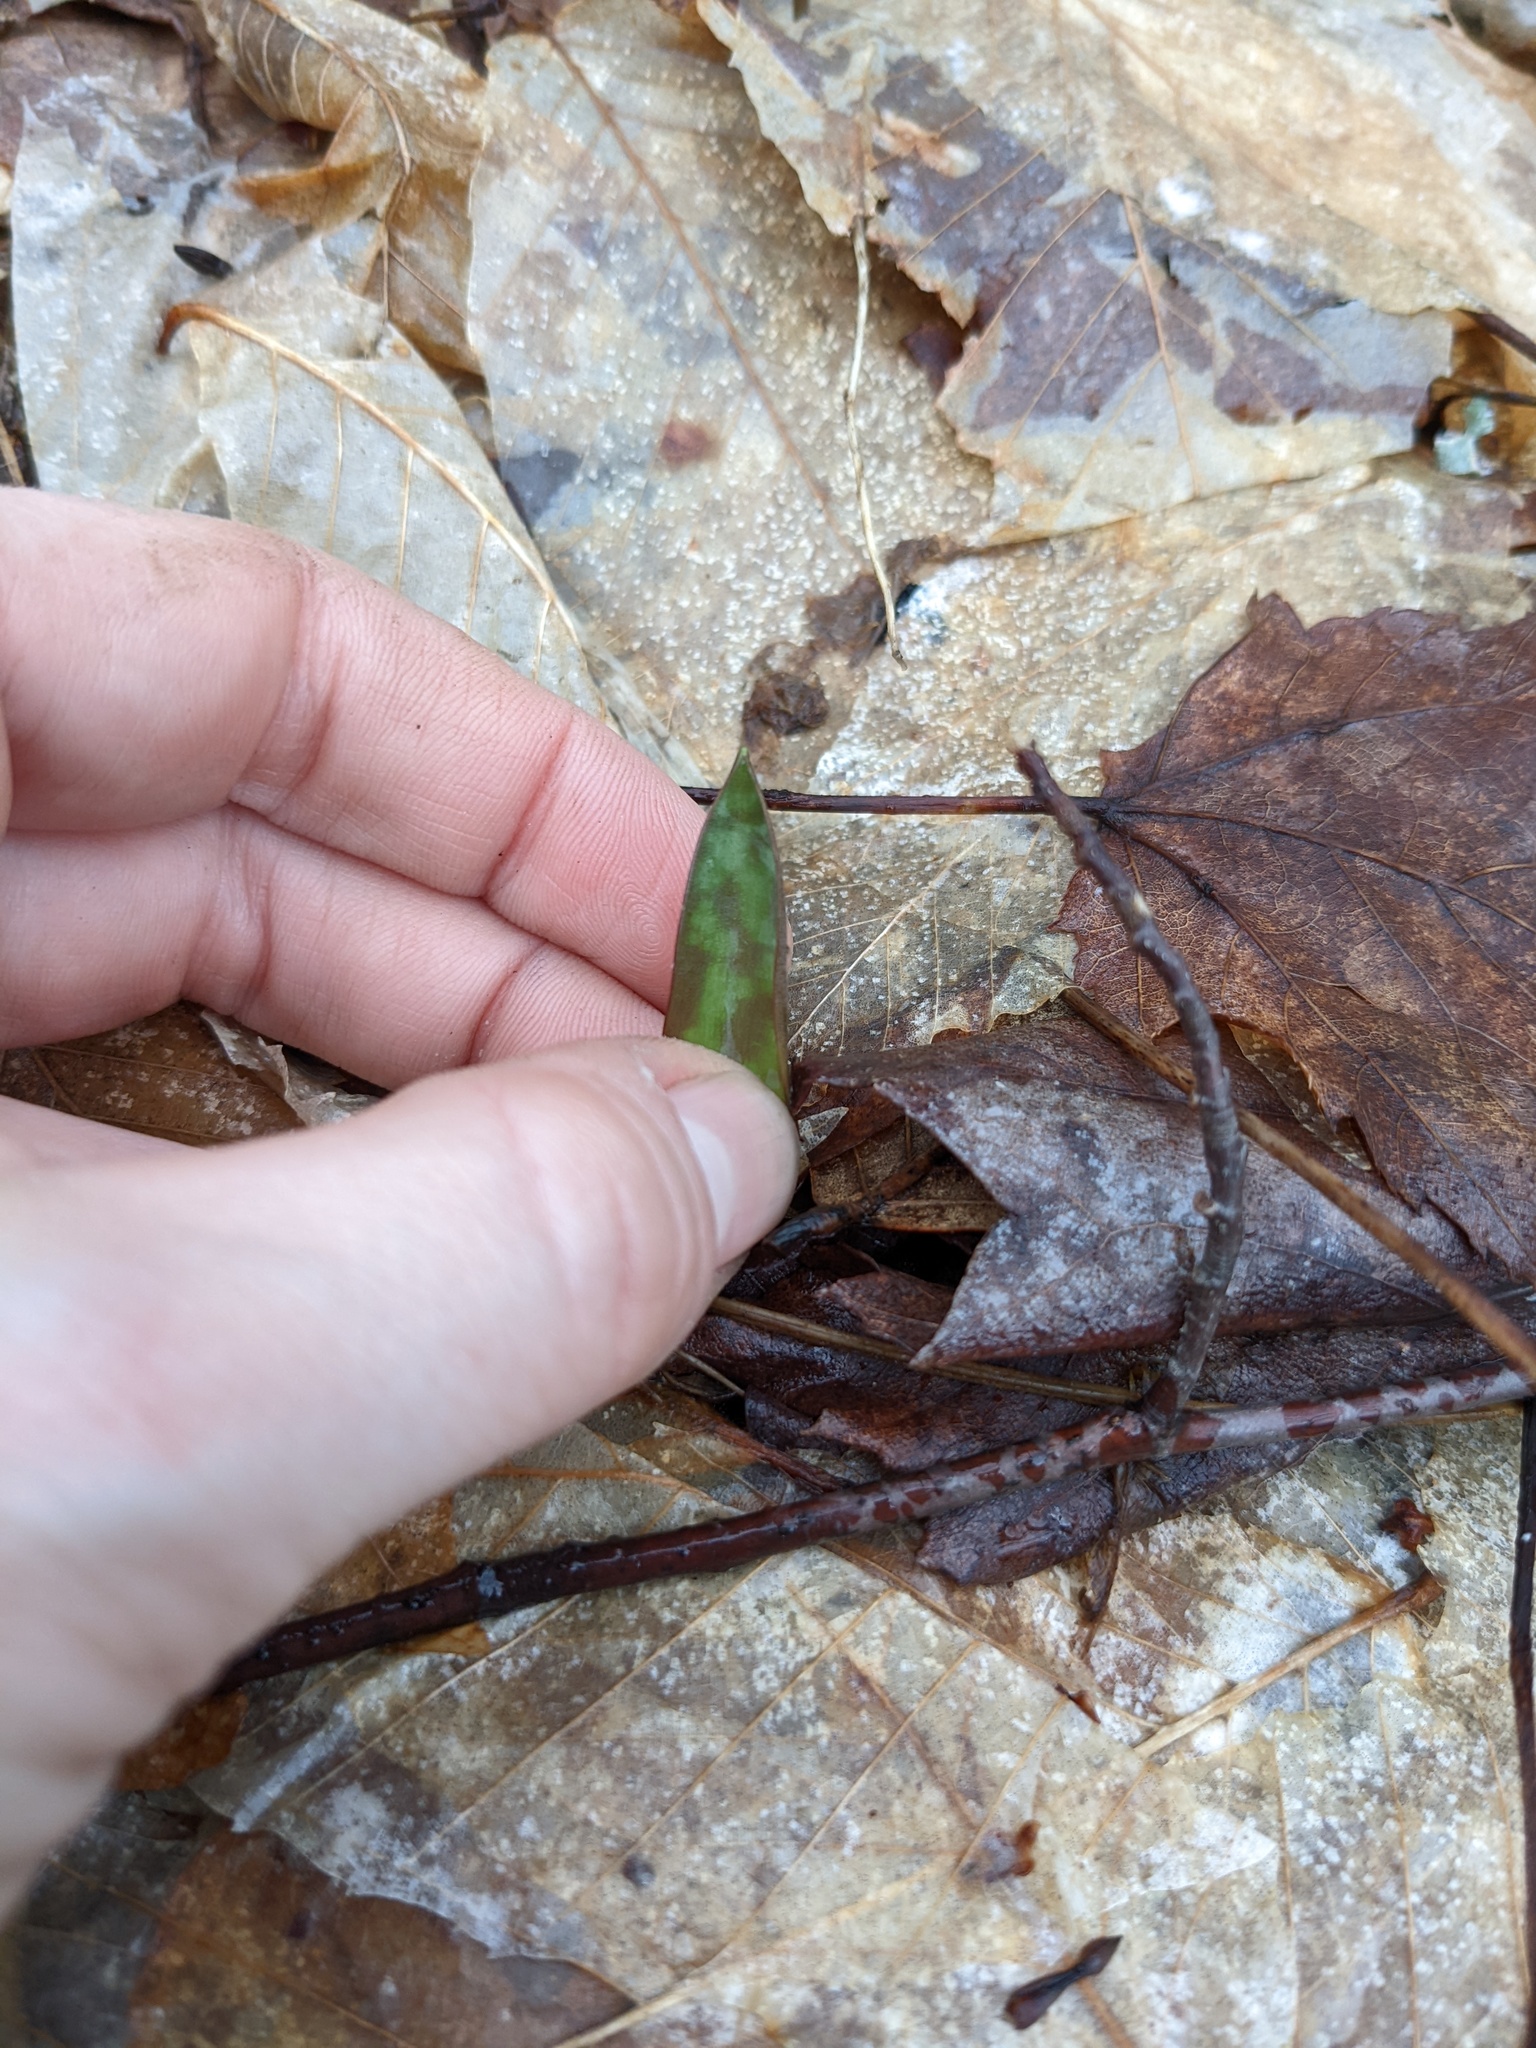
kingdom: Plantae
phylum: Tracheophyta
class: Liliopsida
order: Liliales
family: Liliaceae
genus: Erythronium
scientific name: Erythronium americanum
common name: Yellow adder's-tongue
